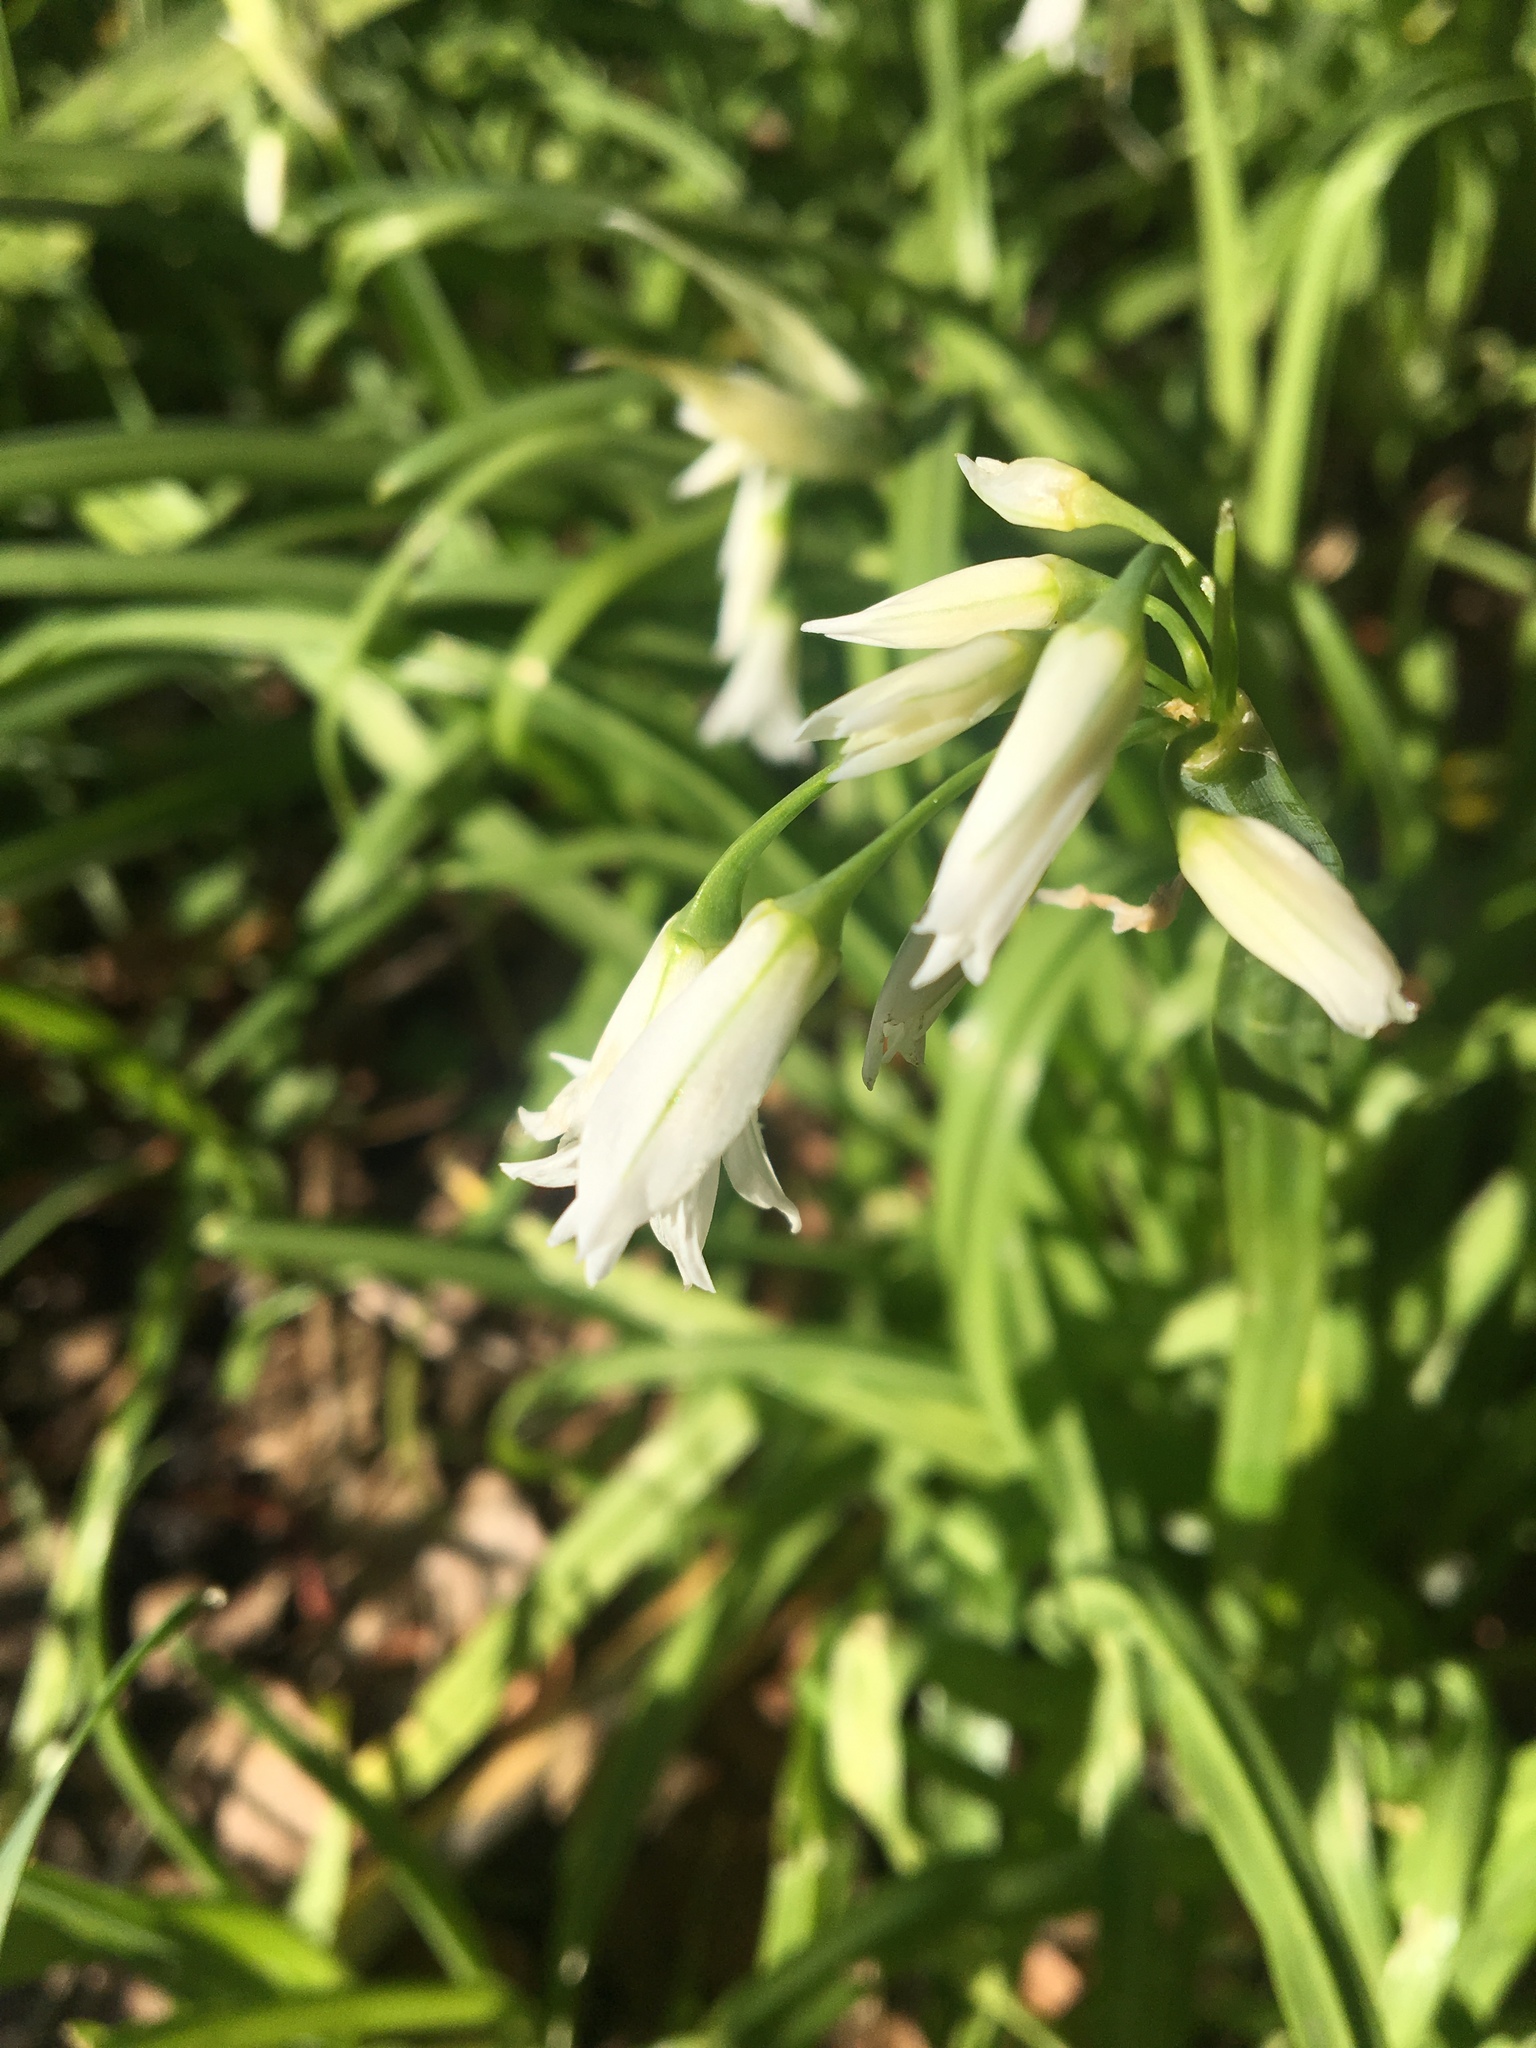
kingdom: Plantae
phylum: Tracheophyta
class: Liliopsida
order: Asparagales
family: Amaryllidaceae
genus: Allium
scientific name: Allium triquetrum
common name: Three-cornered garlic
